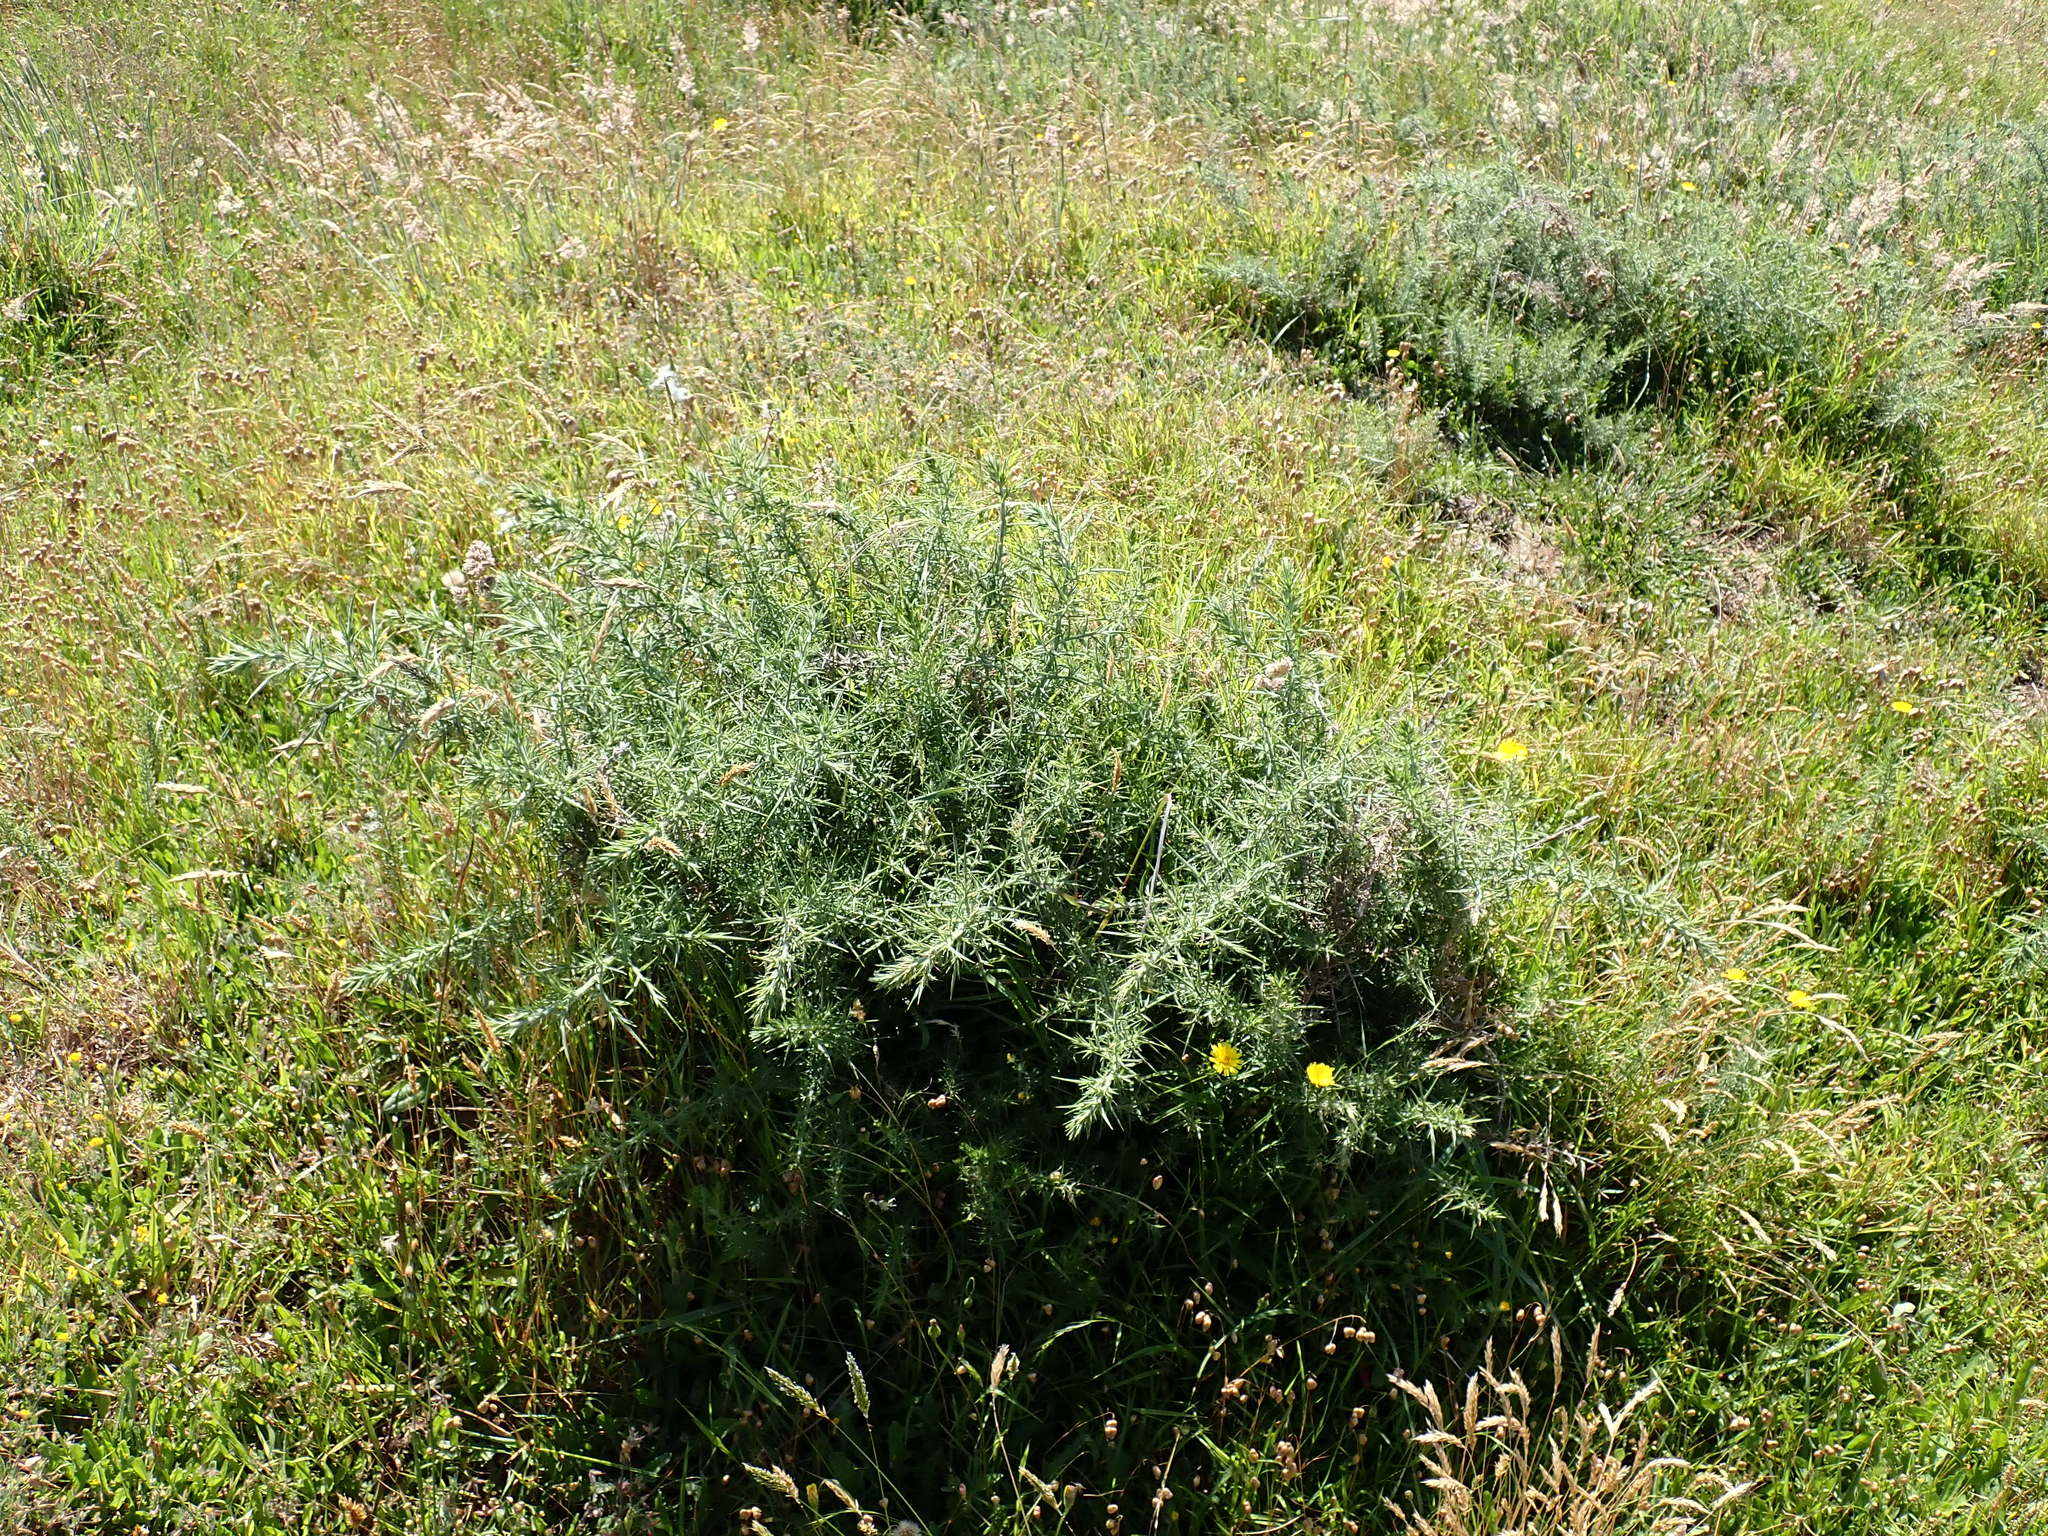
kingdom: Plantae
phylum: Tracheophyta
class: Magnoliopsida
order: Fabales
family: Fabaceae
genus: Ulex
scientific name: Ulex europaeus
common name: Common gorse
